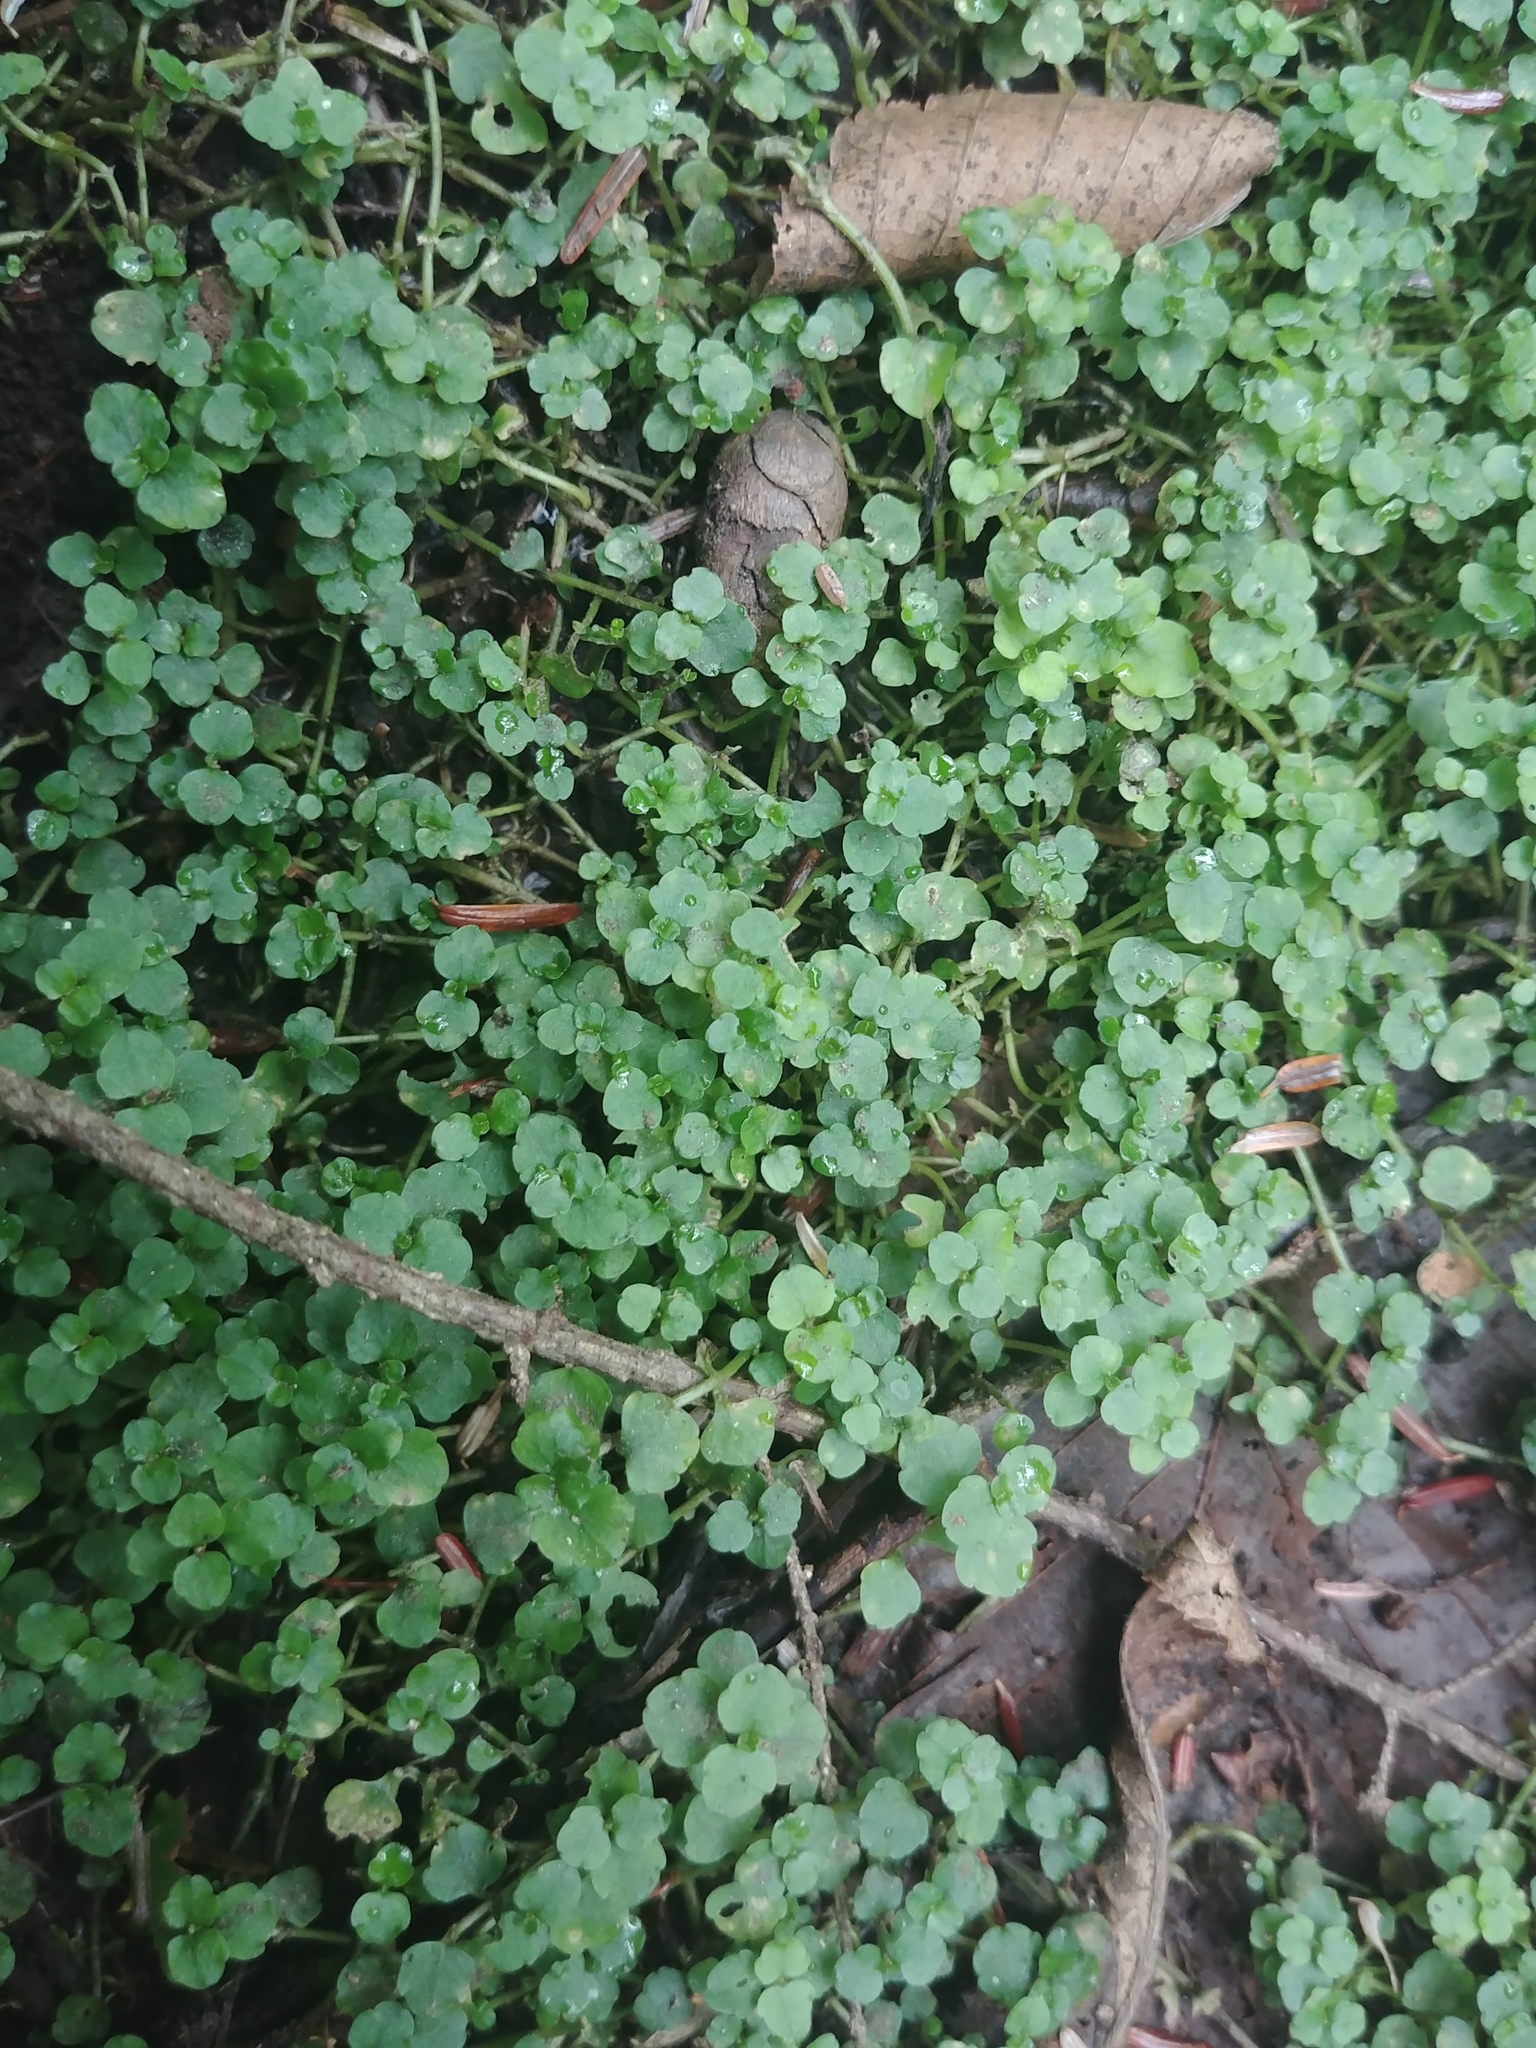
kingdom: Plantae
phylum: Tracheophyta
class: Magnoliopsida
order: Saxifragales
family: Saxifragaceae
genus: Chrysosplenium
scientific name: Chrysosplenium americanum
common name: American golden-saxifrage
